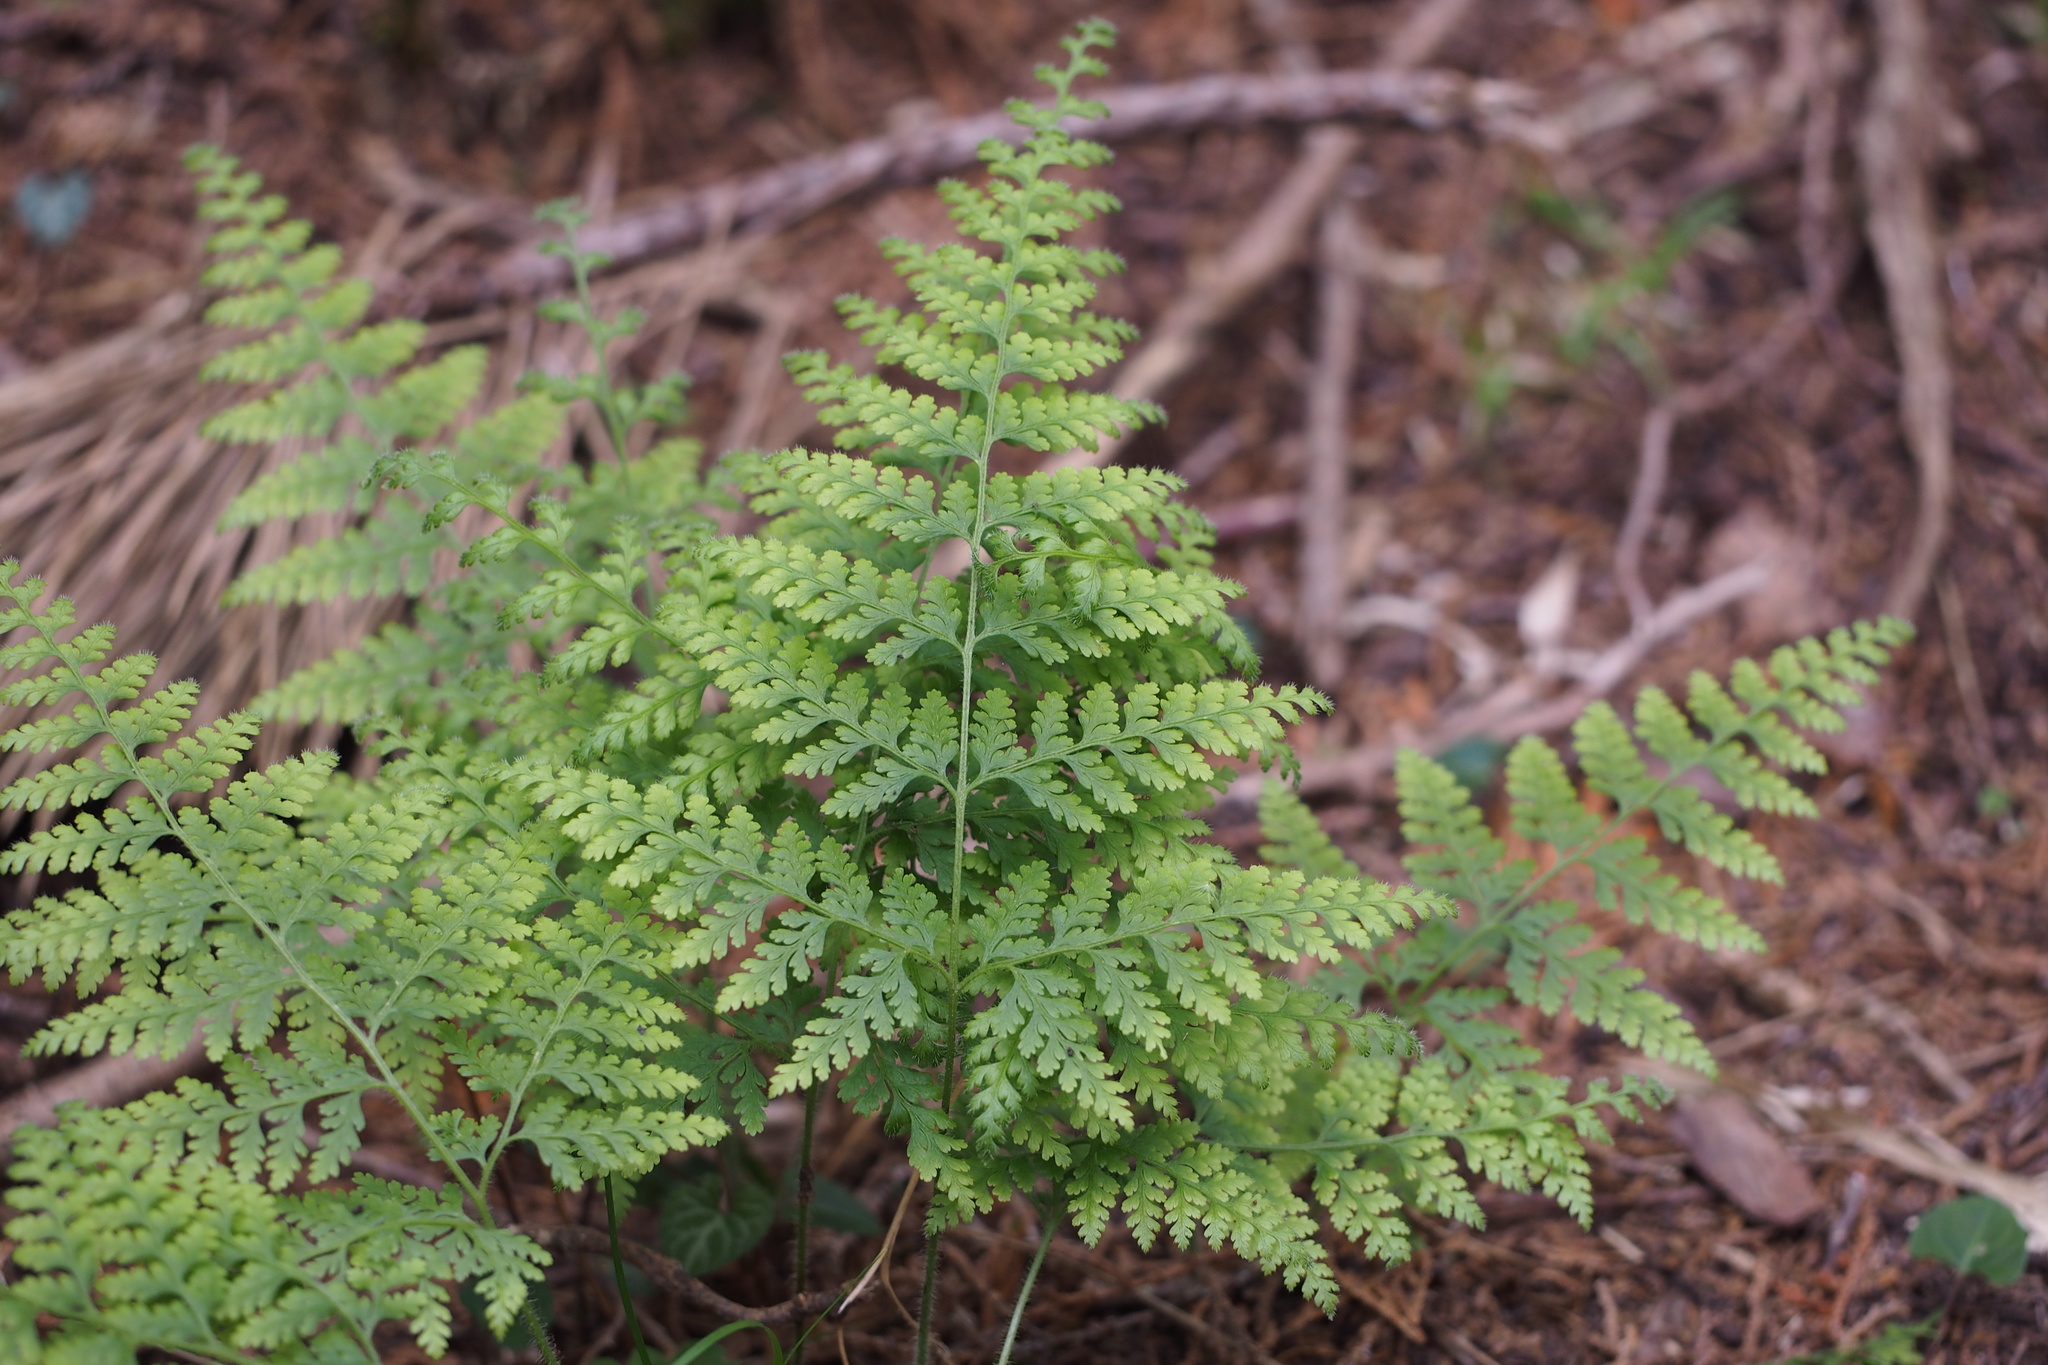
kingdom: Plantae
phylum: Tracheophyta
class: Polypodiopsida
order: Polypodiales
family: Dennstaedtiaceae
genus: Sitobolium
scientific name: Sitobolium zeylanicum
